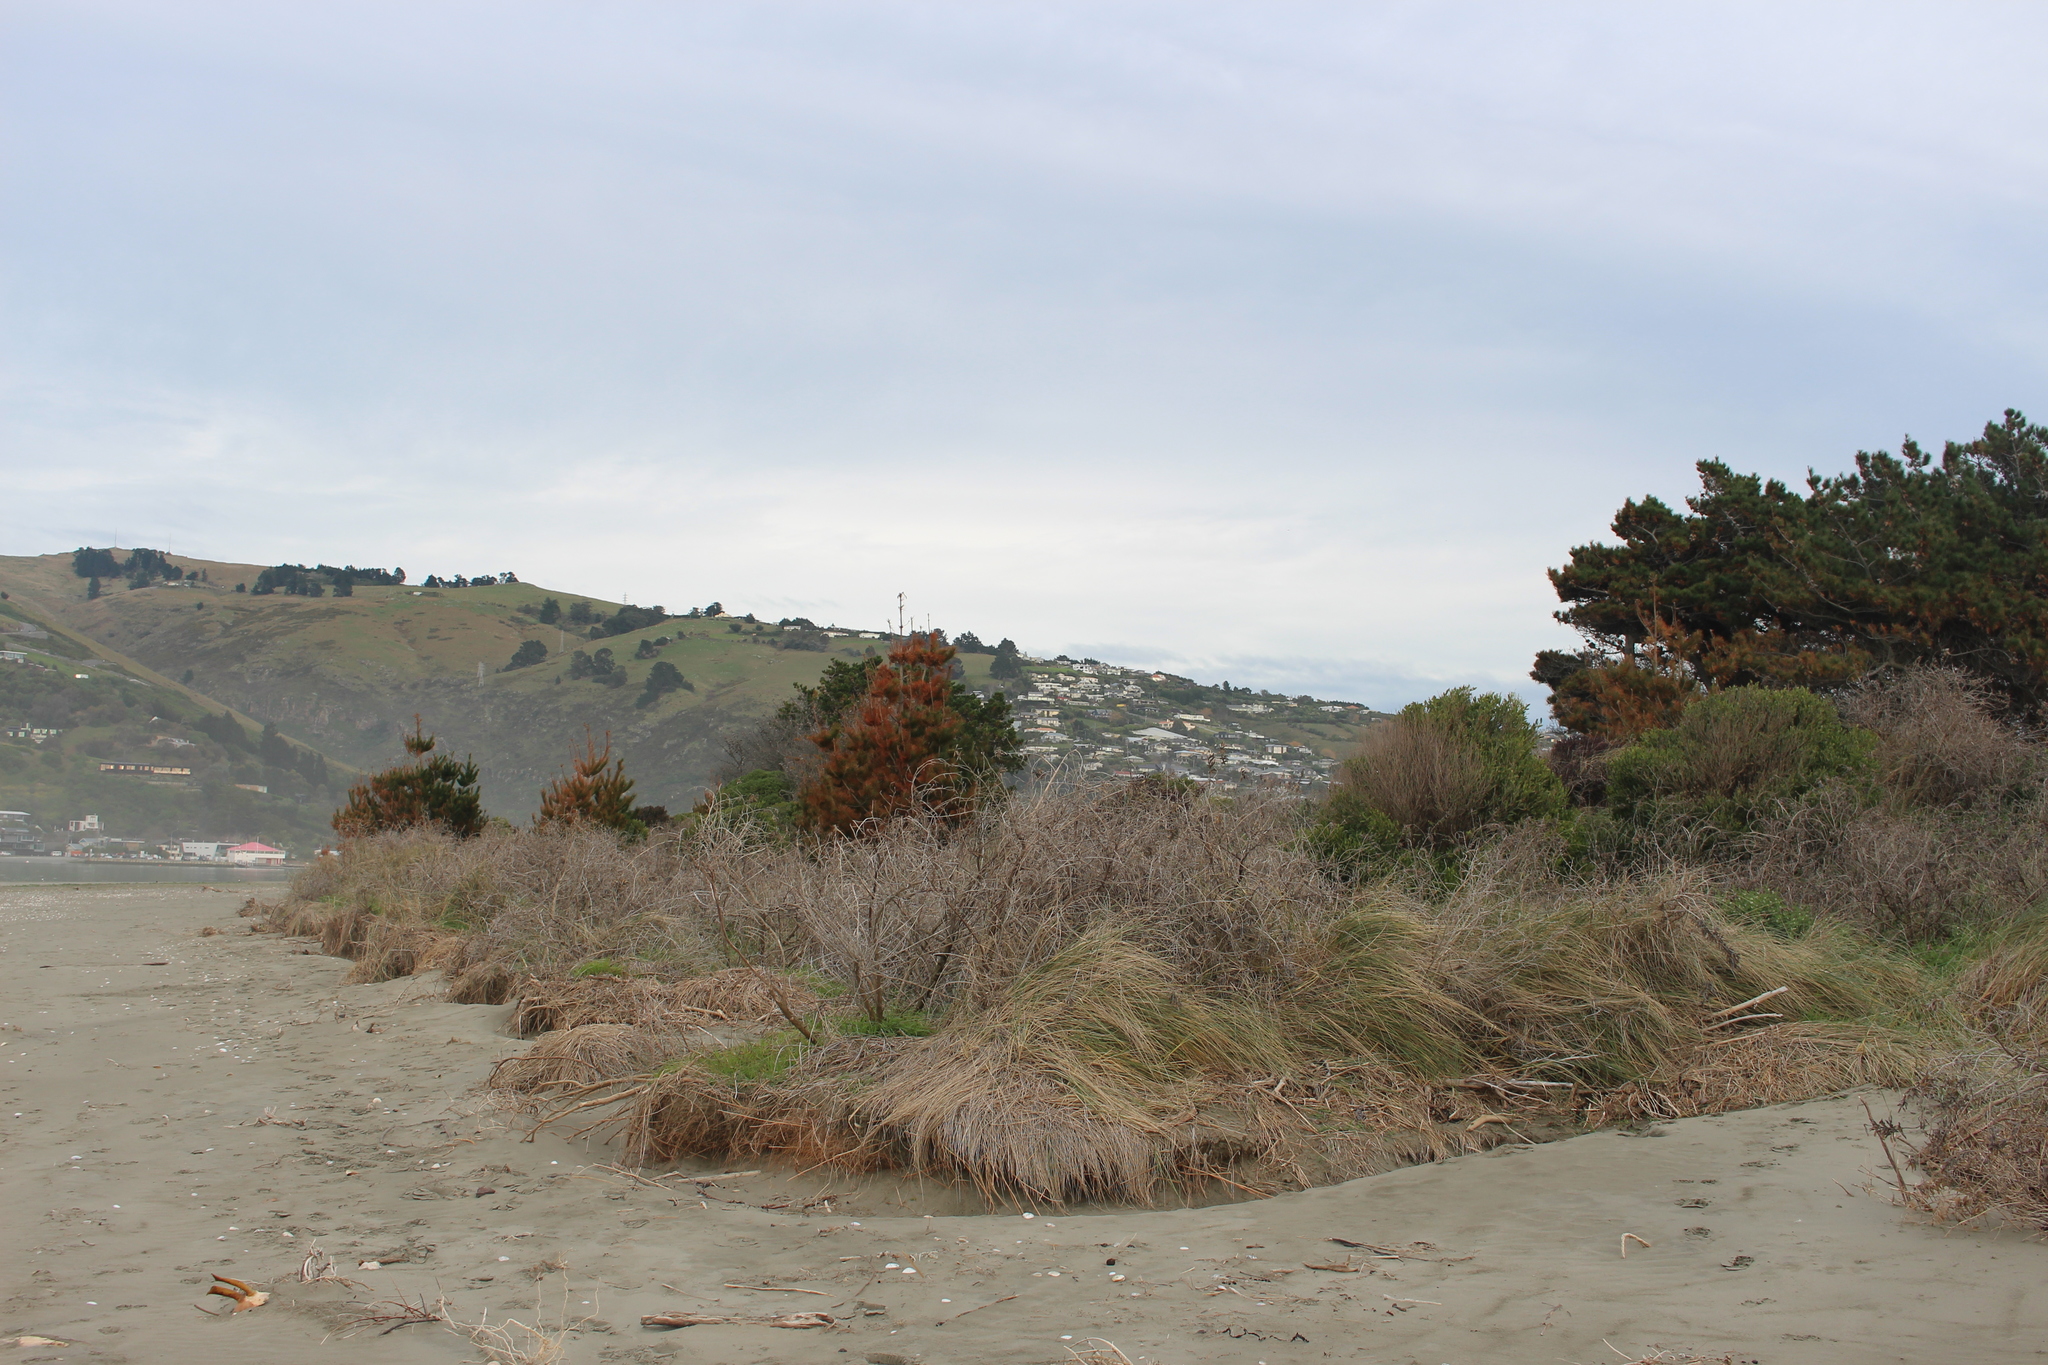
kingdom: Plantae
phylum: Tracheophyta
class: Pinopsida
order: Pinales
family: Pinaceae
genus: Pinus
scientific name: Pinus radiata
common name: Monterey pine
